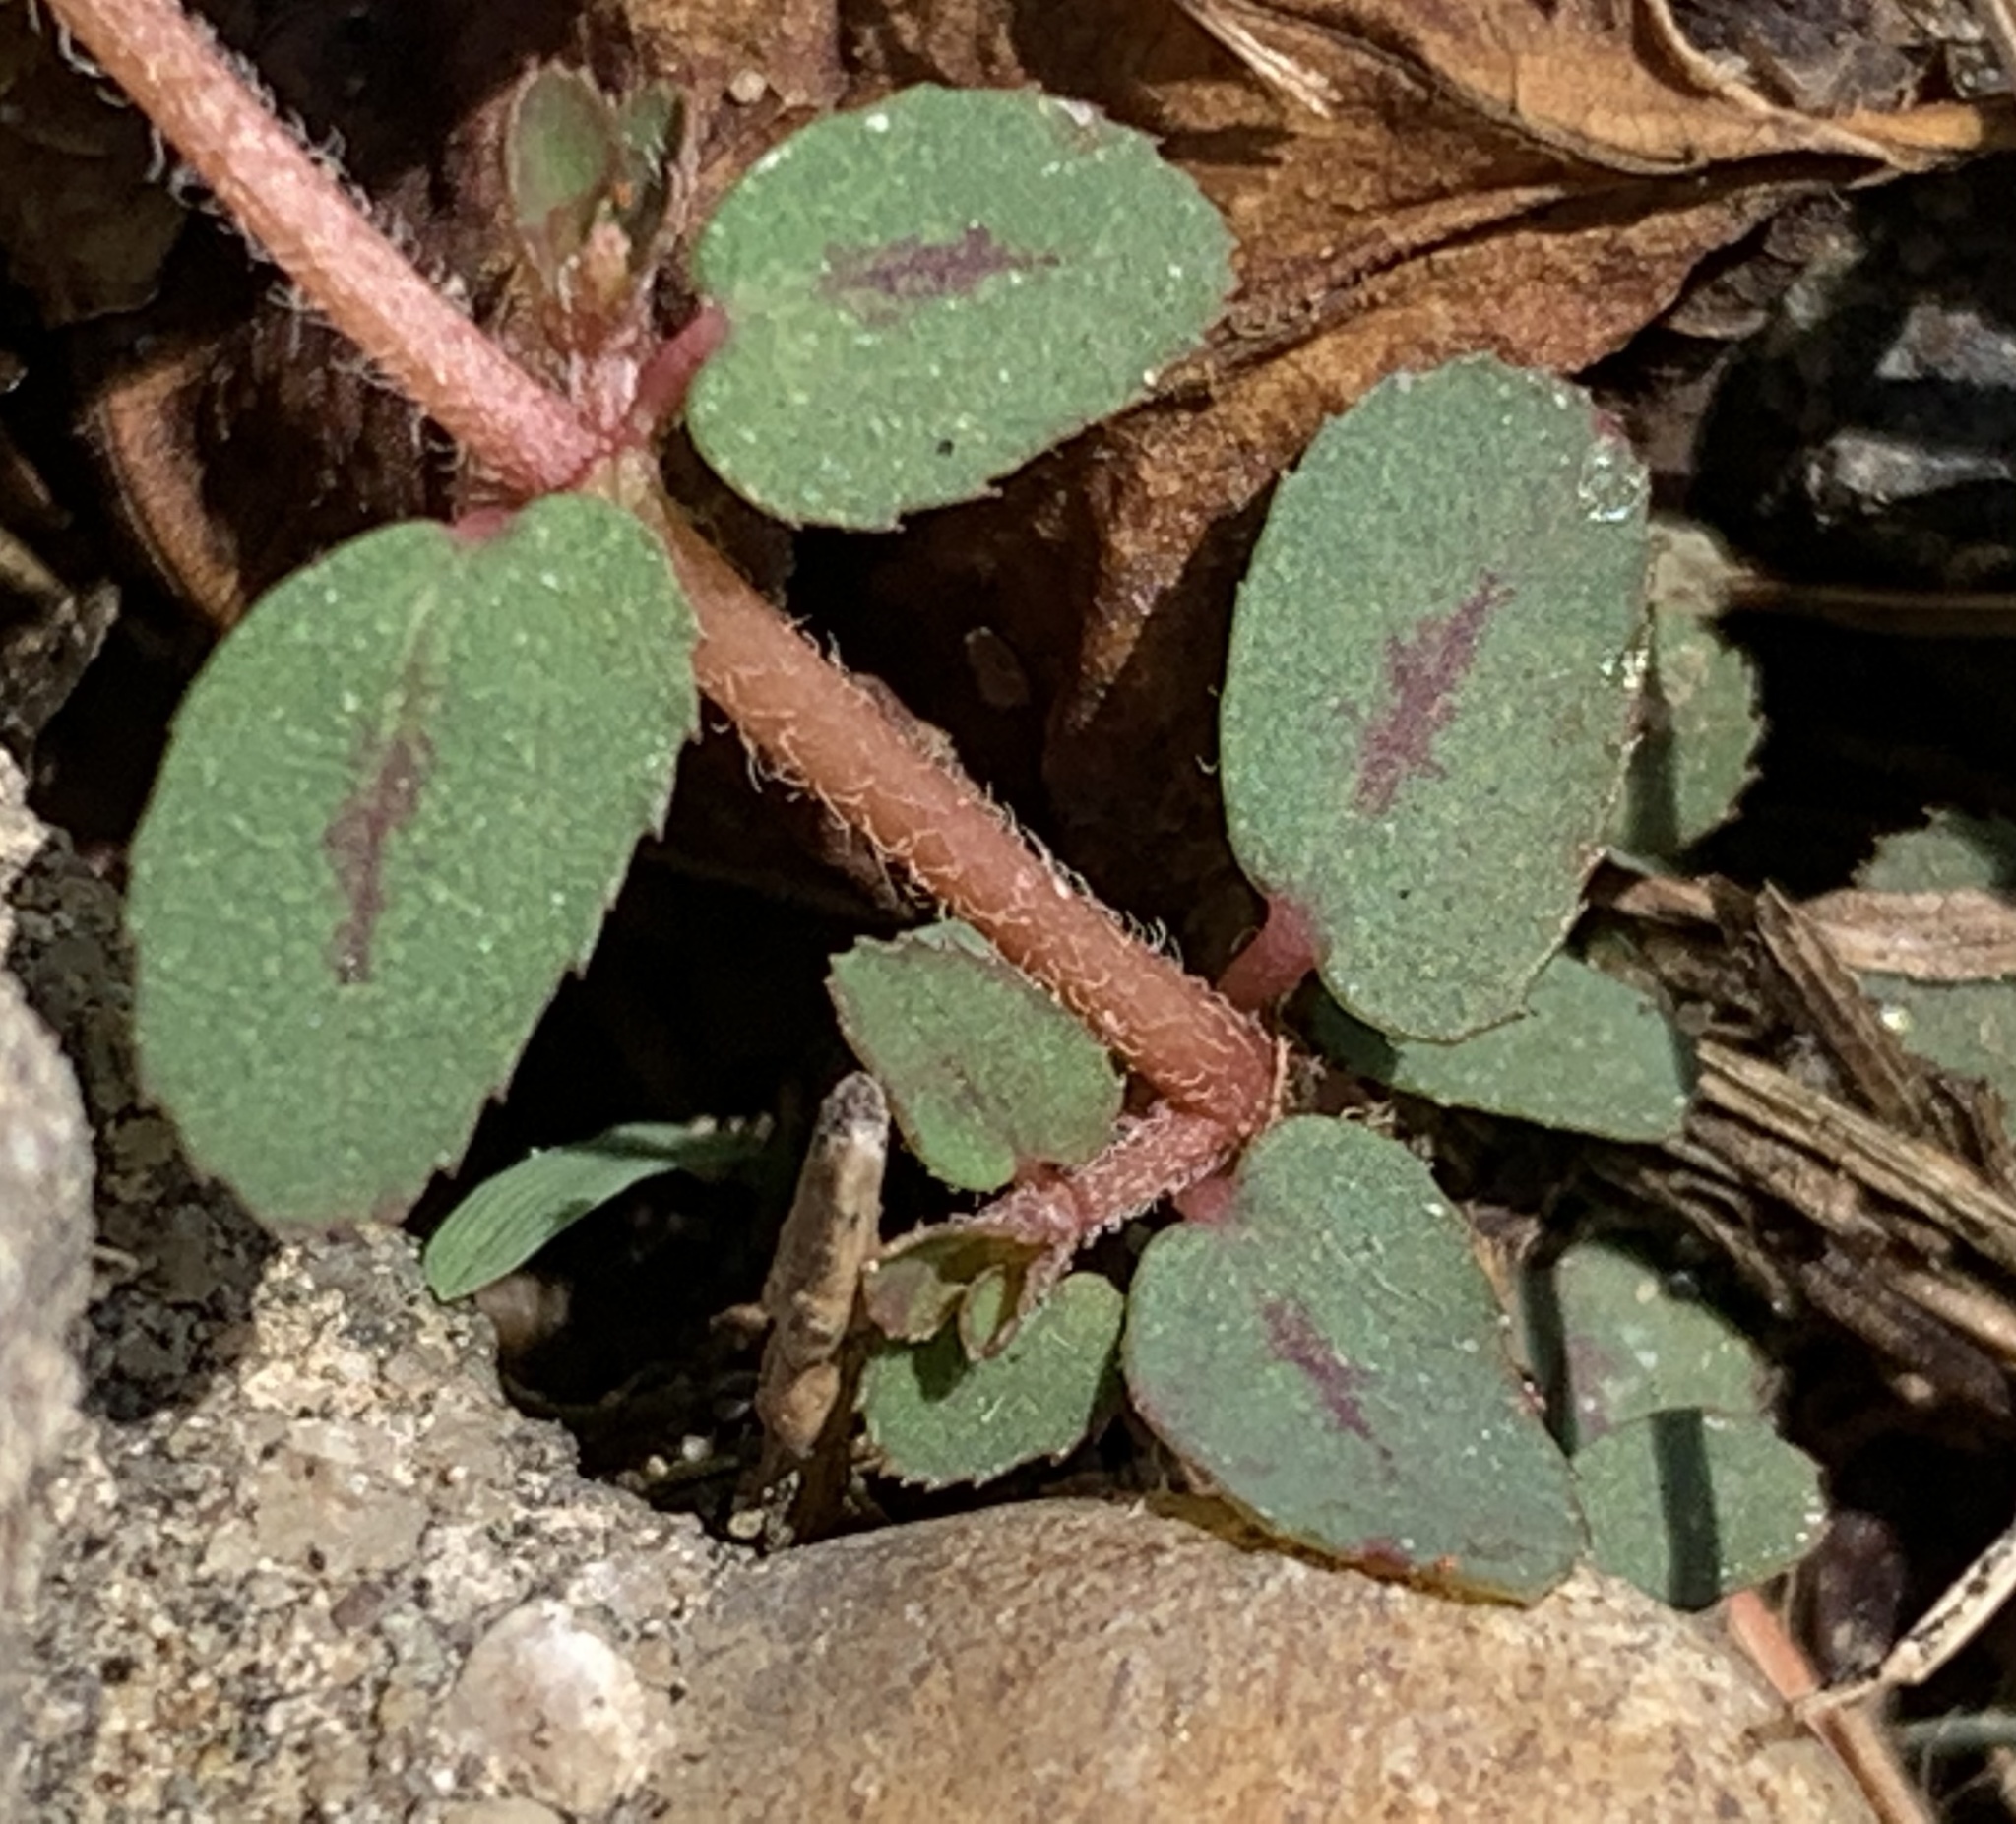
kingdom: Plantae
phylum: Tracheophyta
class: Magnoliopsida
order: Malpighiales
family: Euphorbiaceae
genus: Euphorbia
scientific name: Euphorbia maculata
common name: Spotted spurge
